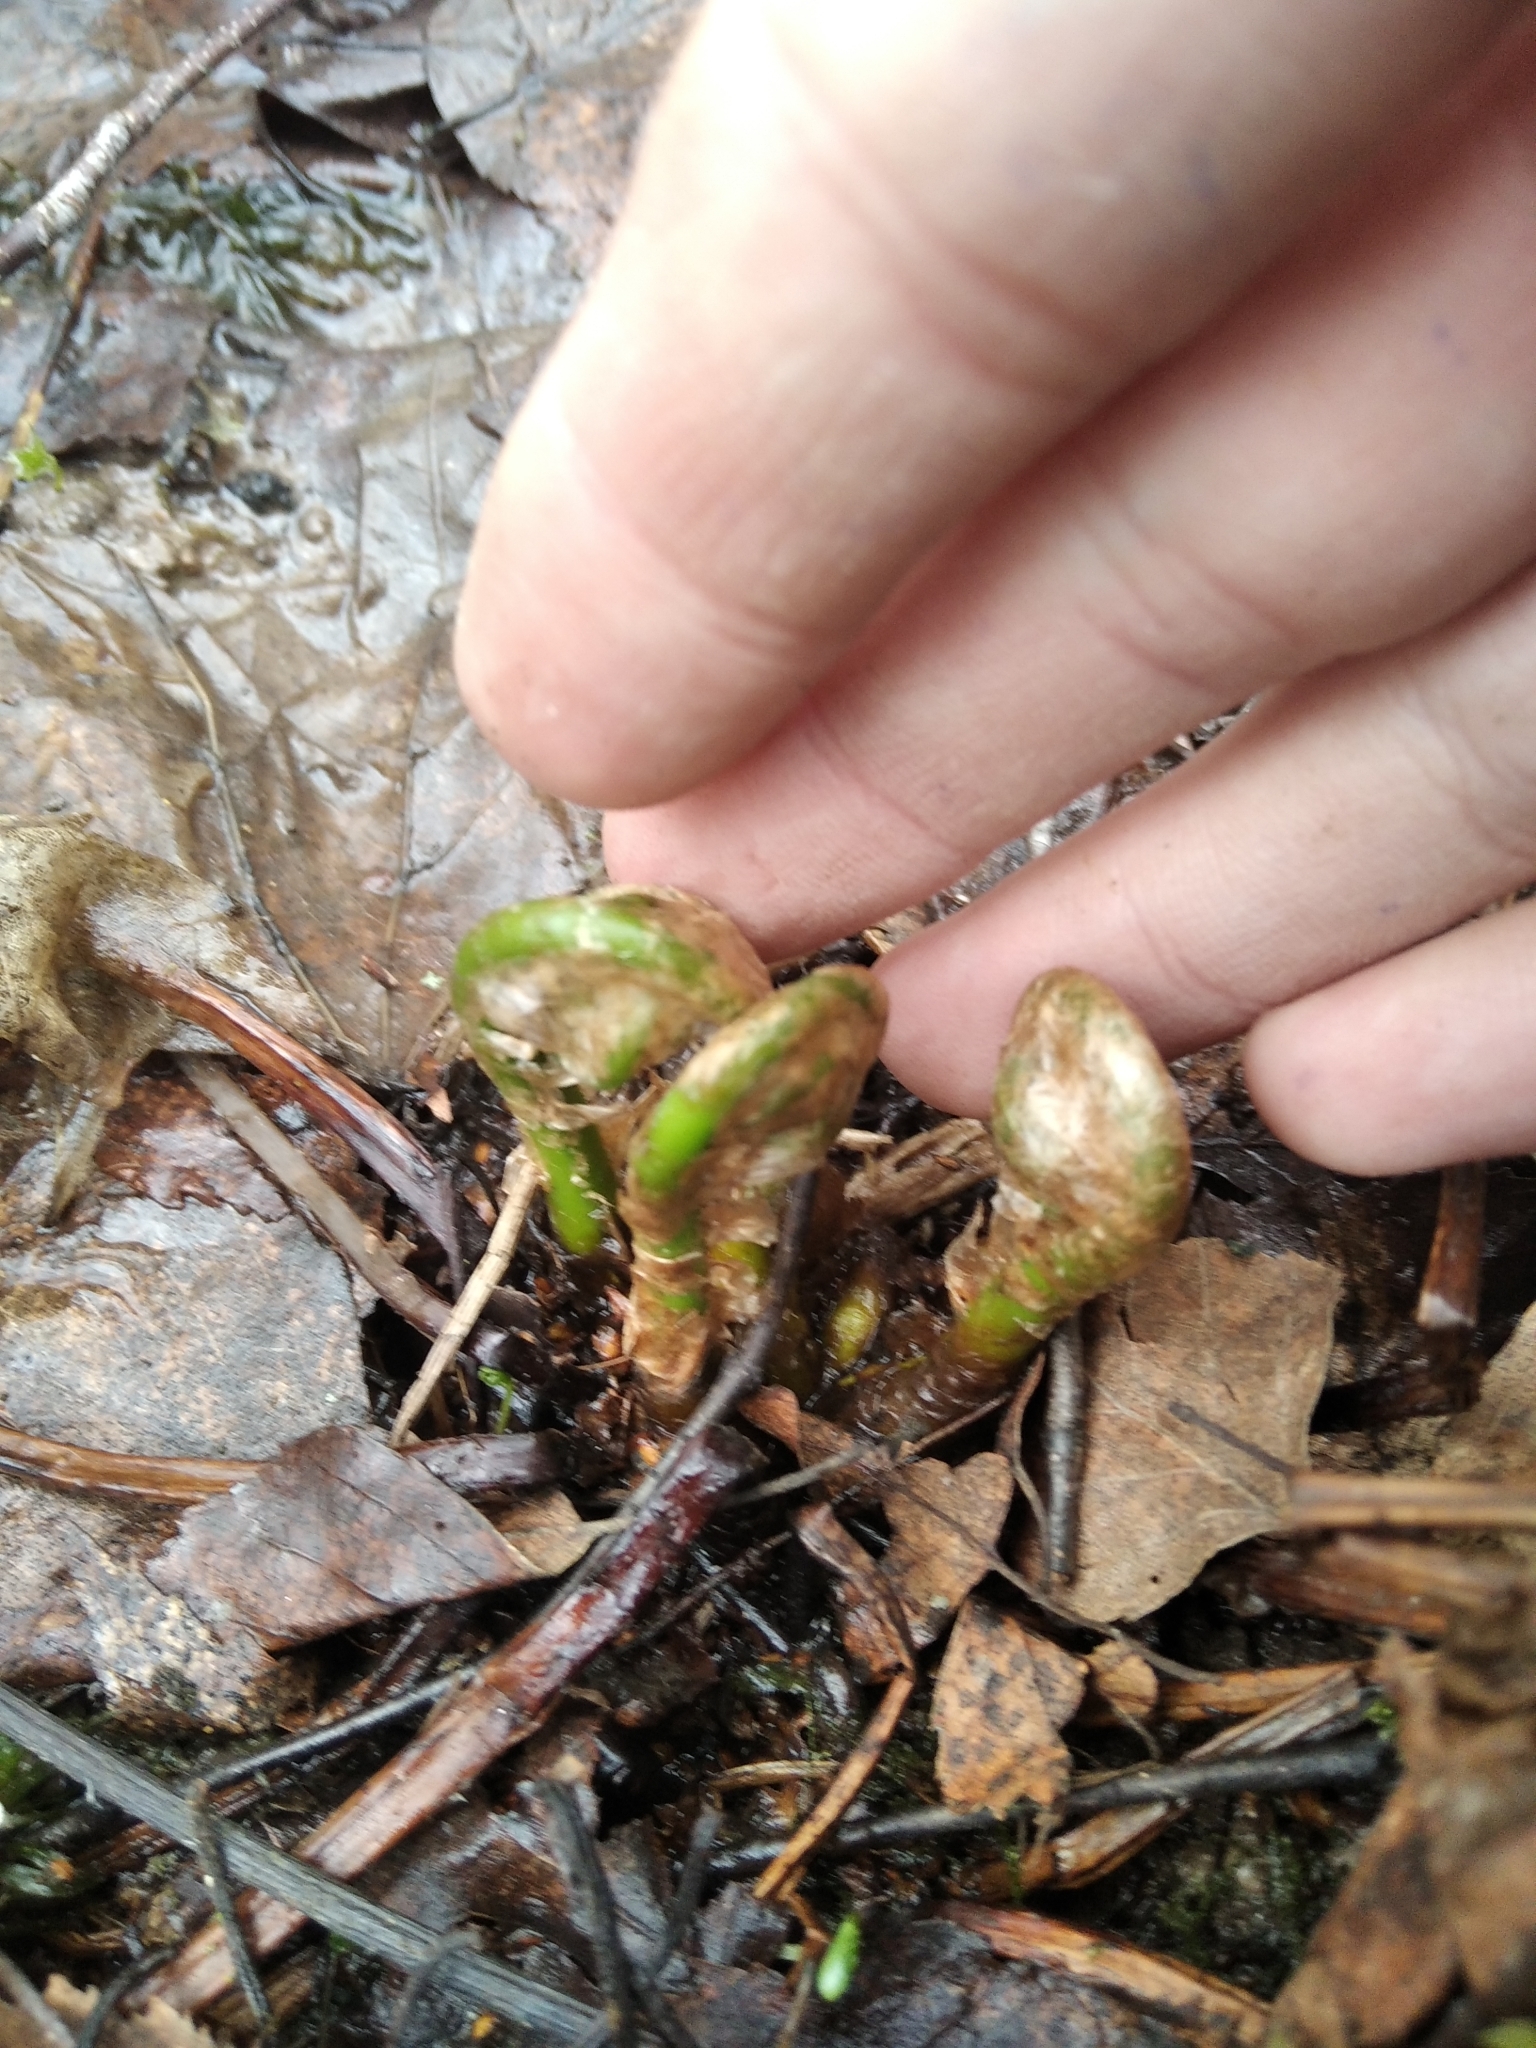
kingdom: Plantae
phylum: Tracheophyta
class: Polypodiopsida
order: Polypodiales
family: Dryopteridaceae
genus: Dryopteris
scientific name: Dryopteris carthusiana
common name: Narrow buckler-fern
